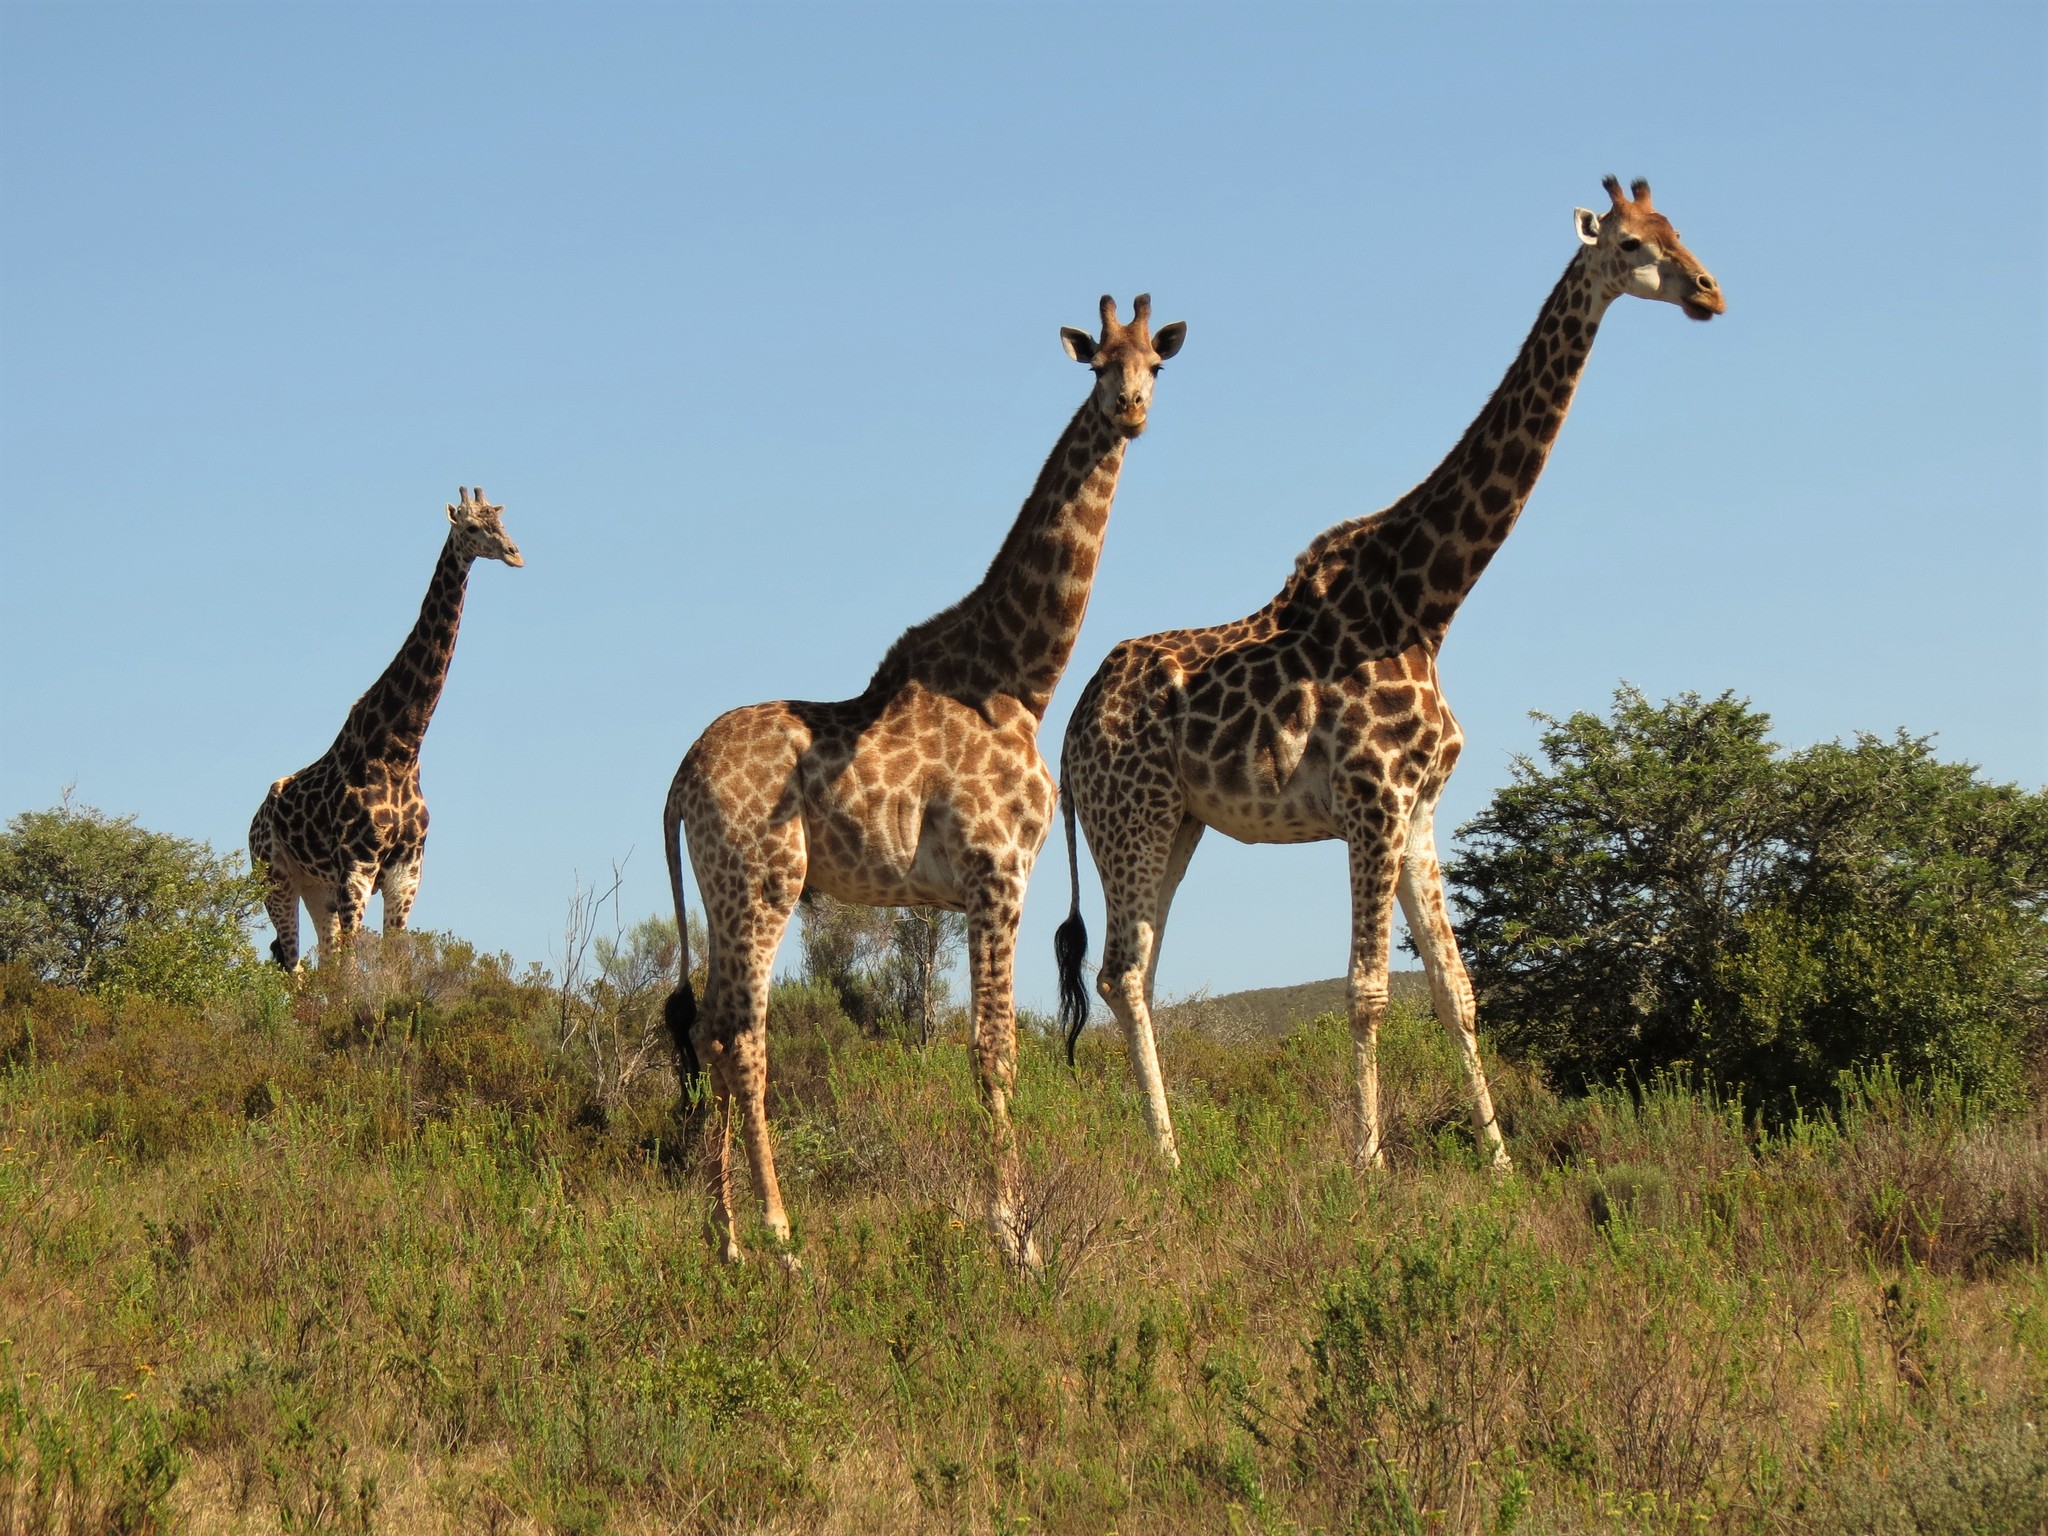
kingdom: Animalia
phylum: Chordata
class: Mammalia
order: Artiodactyla
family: Giraffidae
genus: Giraffa
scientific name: Giraffa giraffa
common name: Southern giraffe
